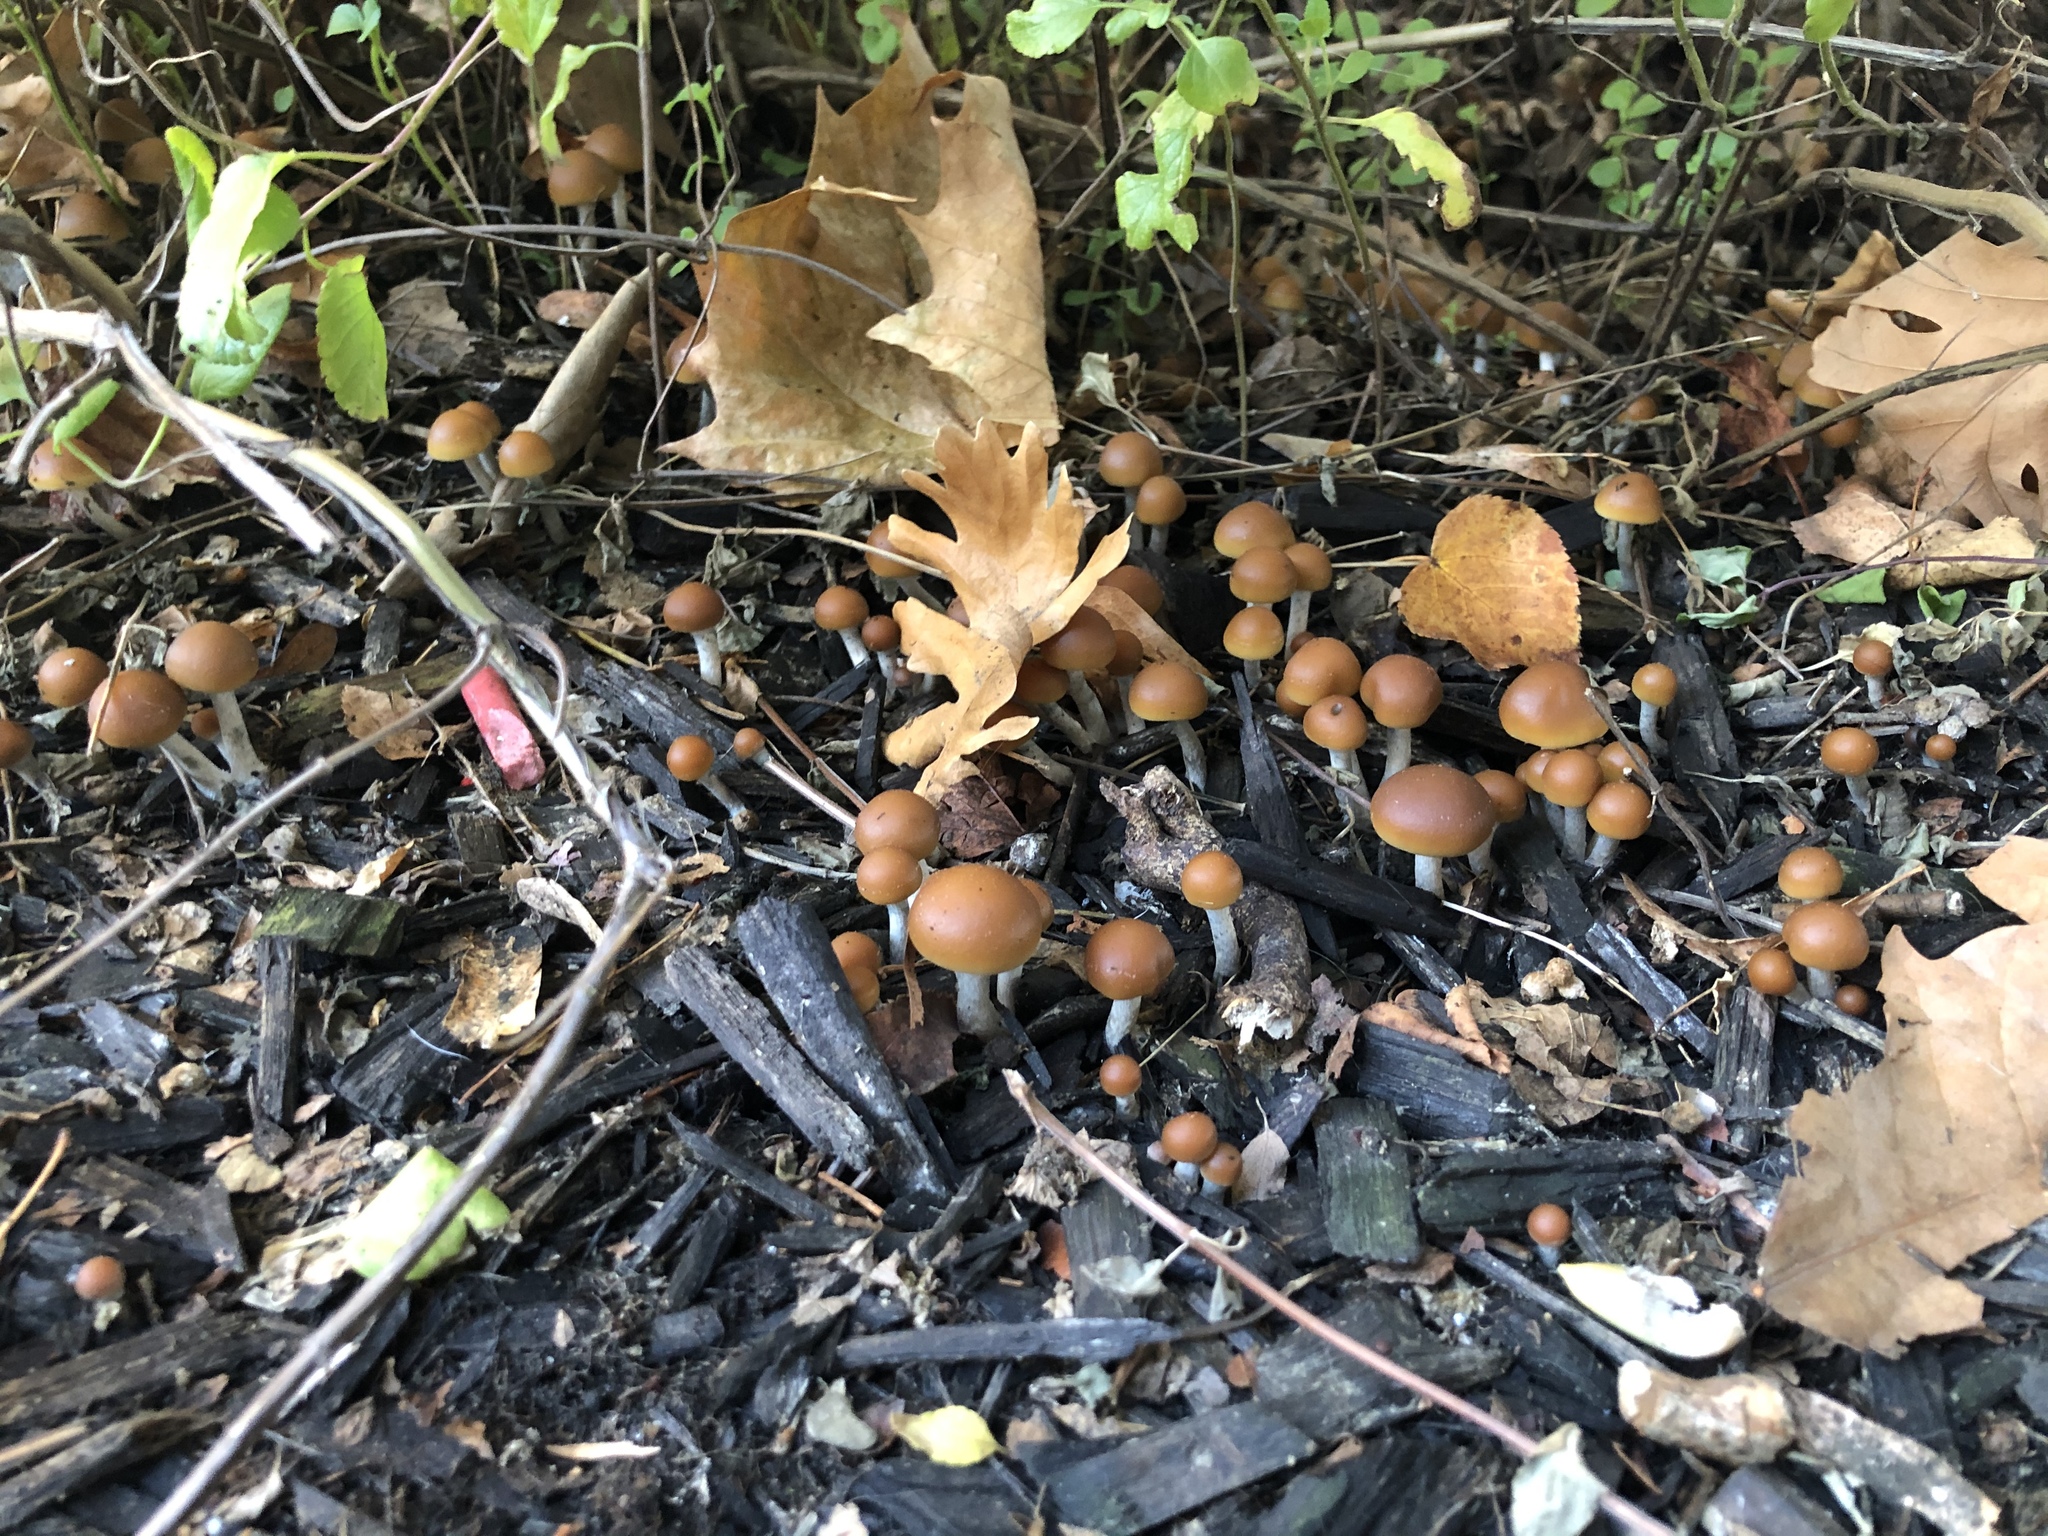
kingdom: Fungi
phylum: Basidiomycota
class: Agaricomycetes
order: Agaricales
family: Hymenogastraceae
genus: Psilocybe
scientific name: Psilocybe allenii
